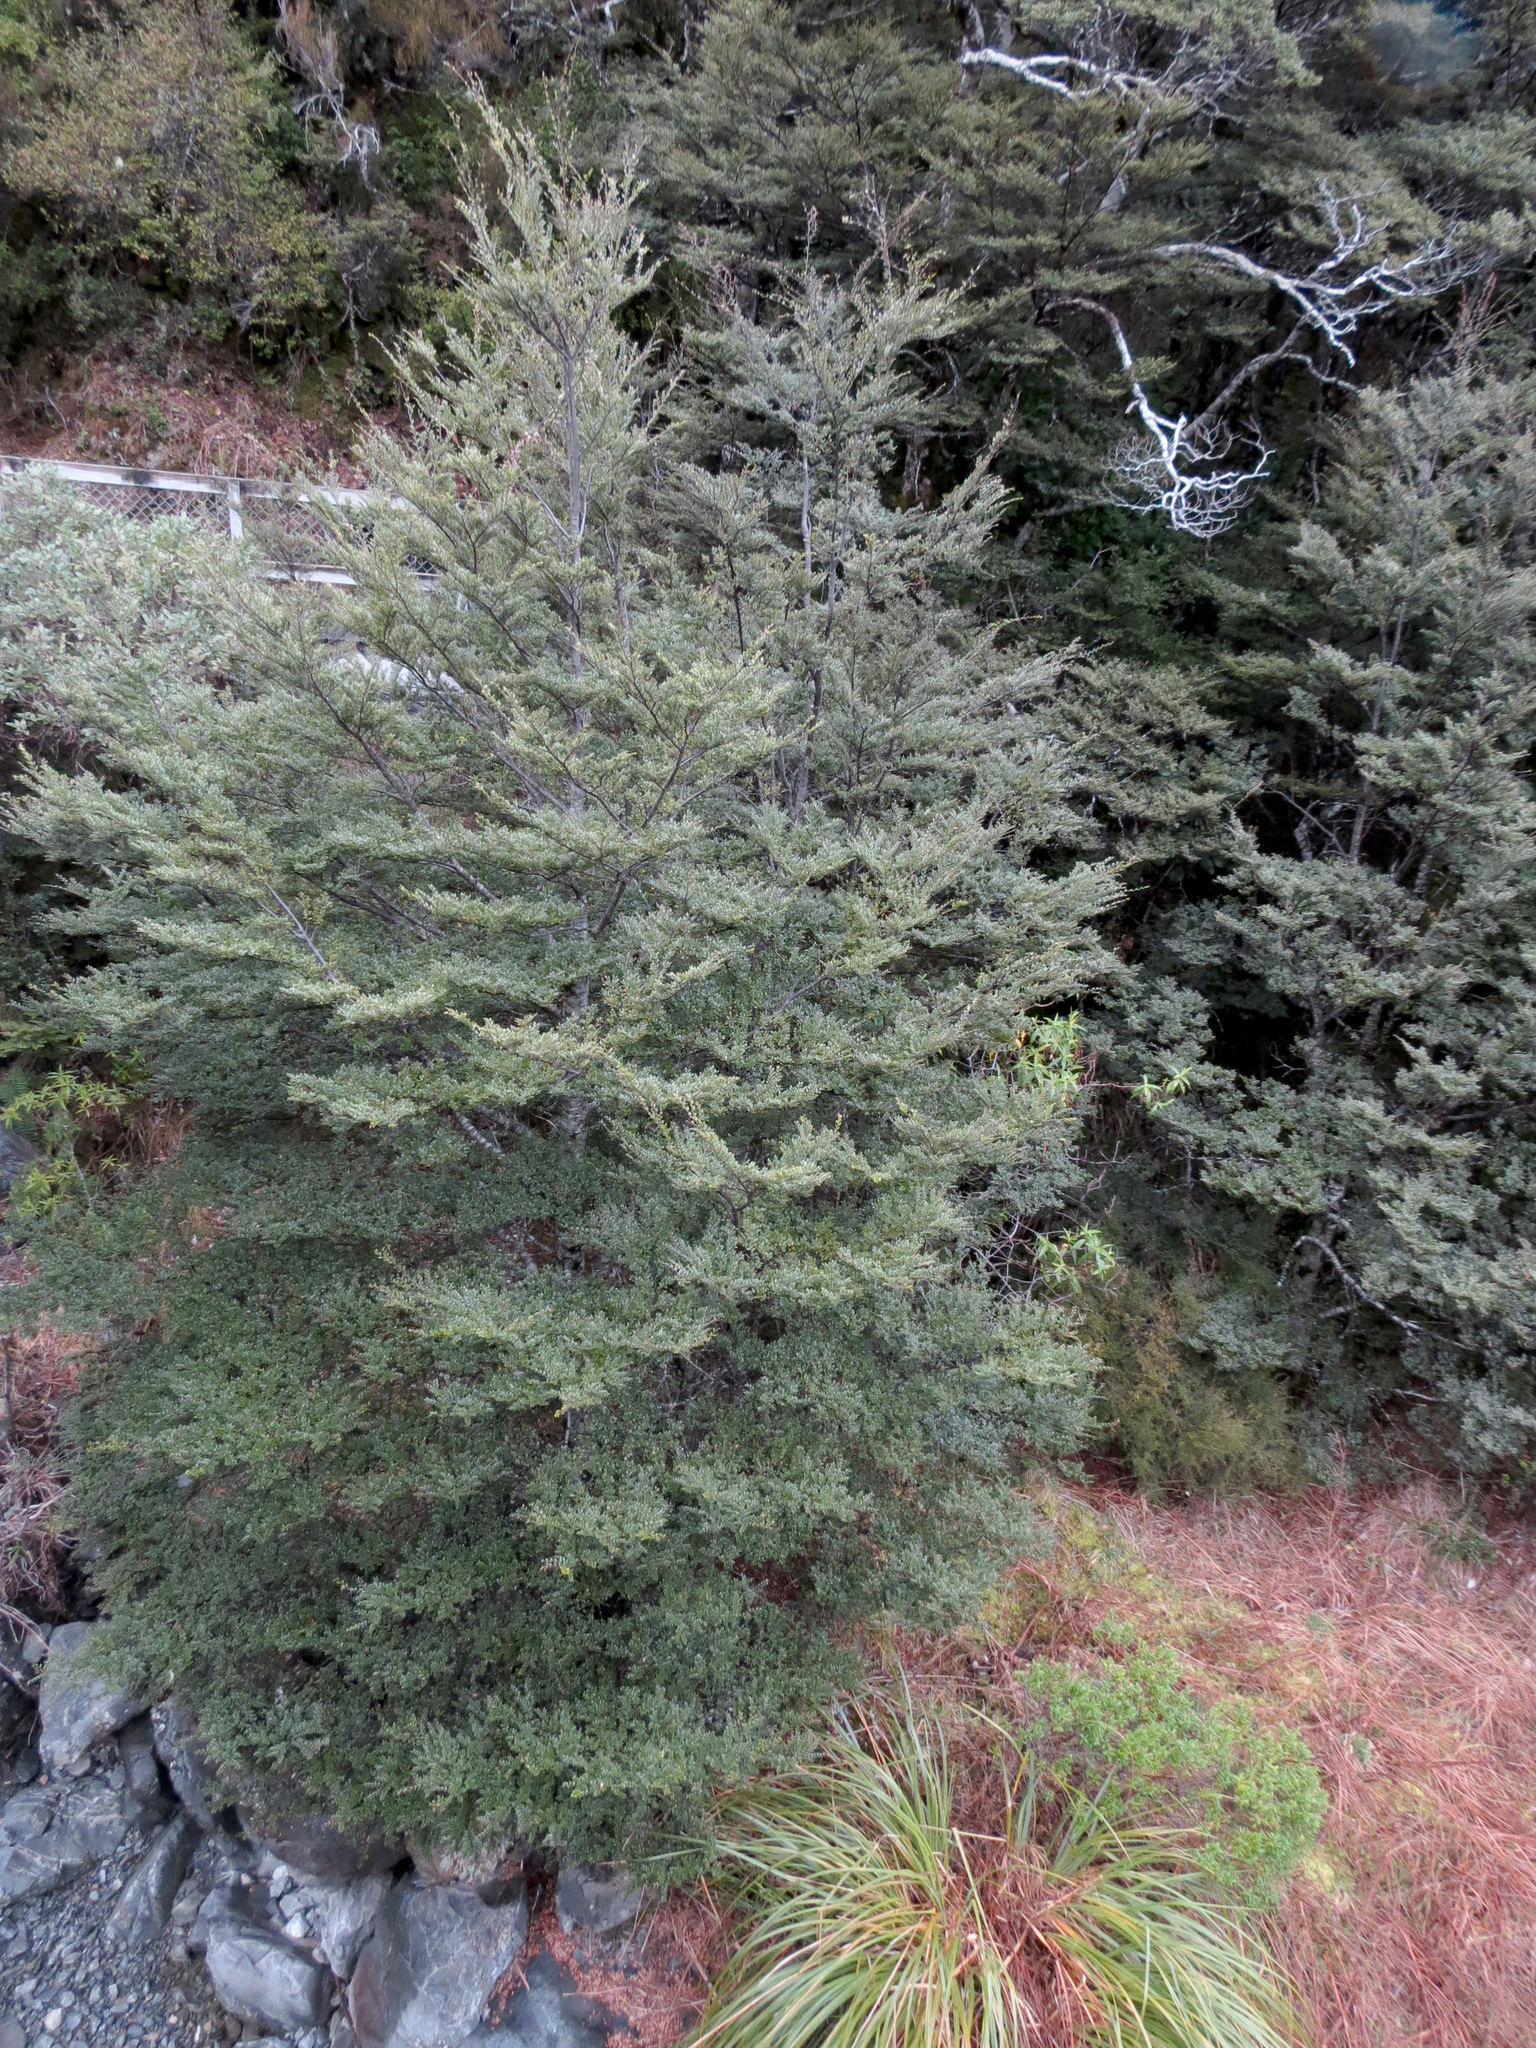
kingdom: Plantae
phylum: Tracheophyta
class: Magnoliopsida
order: Fagales
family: Nothofagaceae
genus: Nothofagus
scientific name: Nothofagus cliffortioides
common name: Mountain beech
